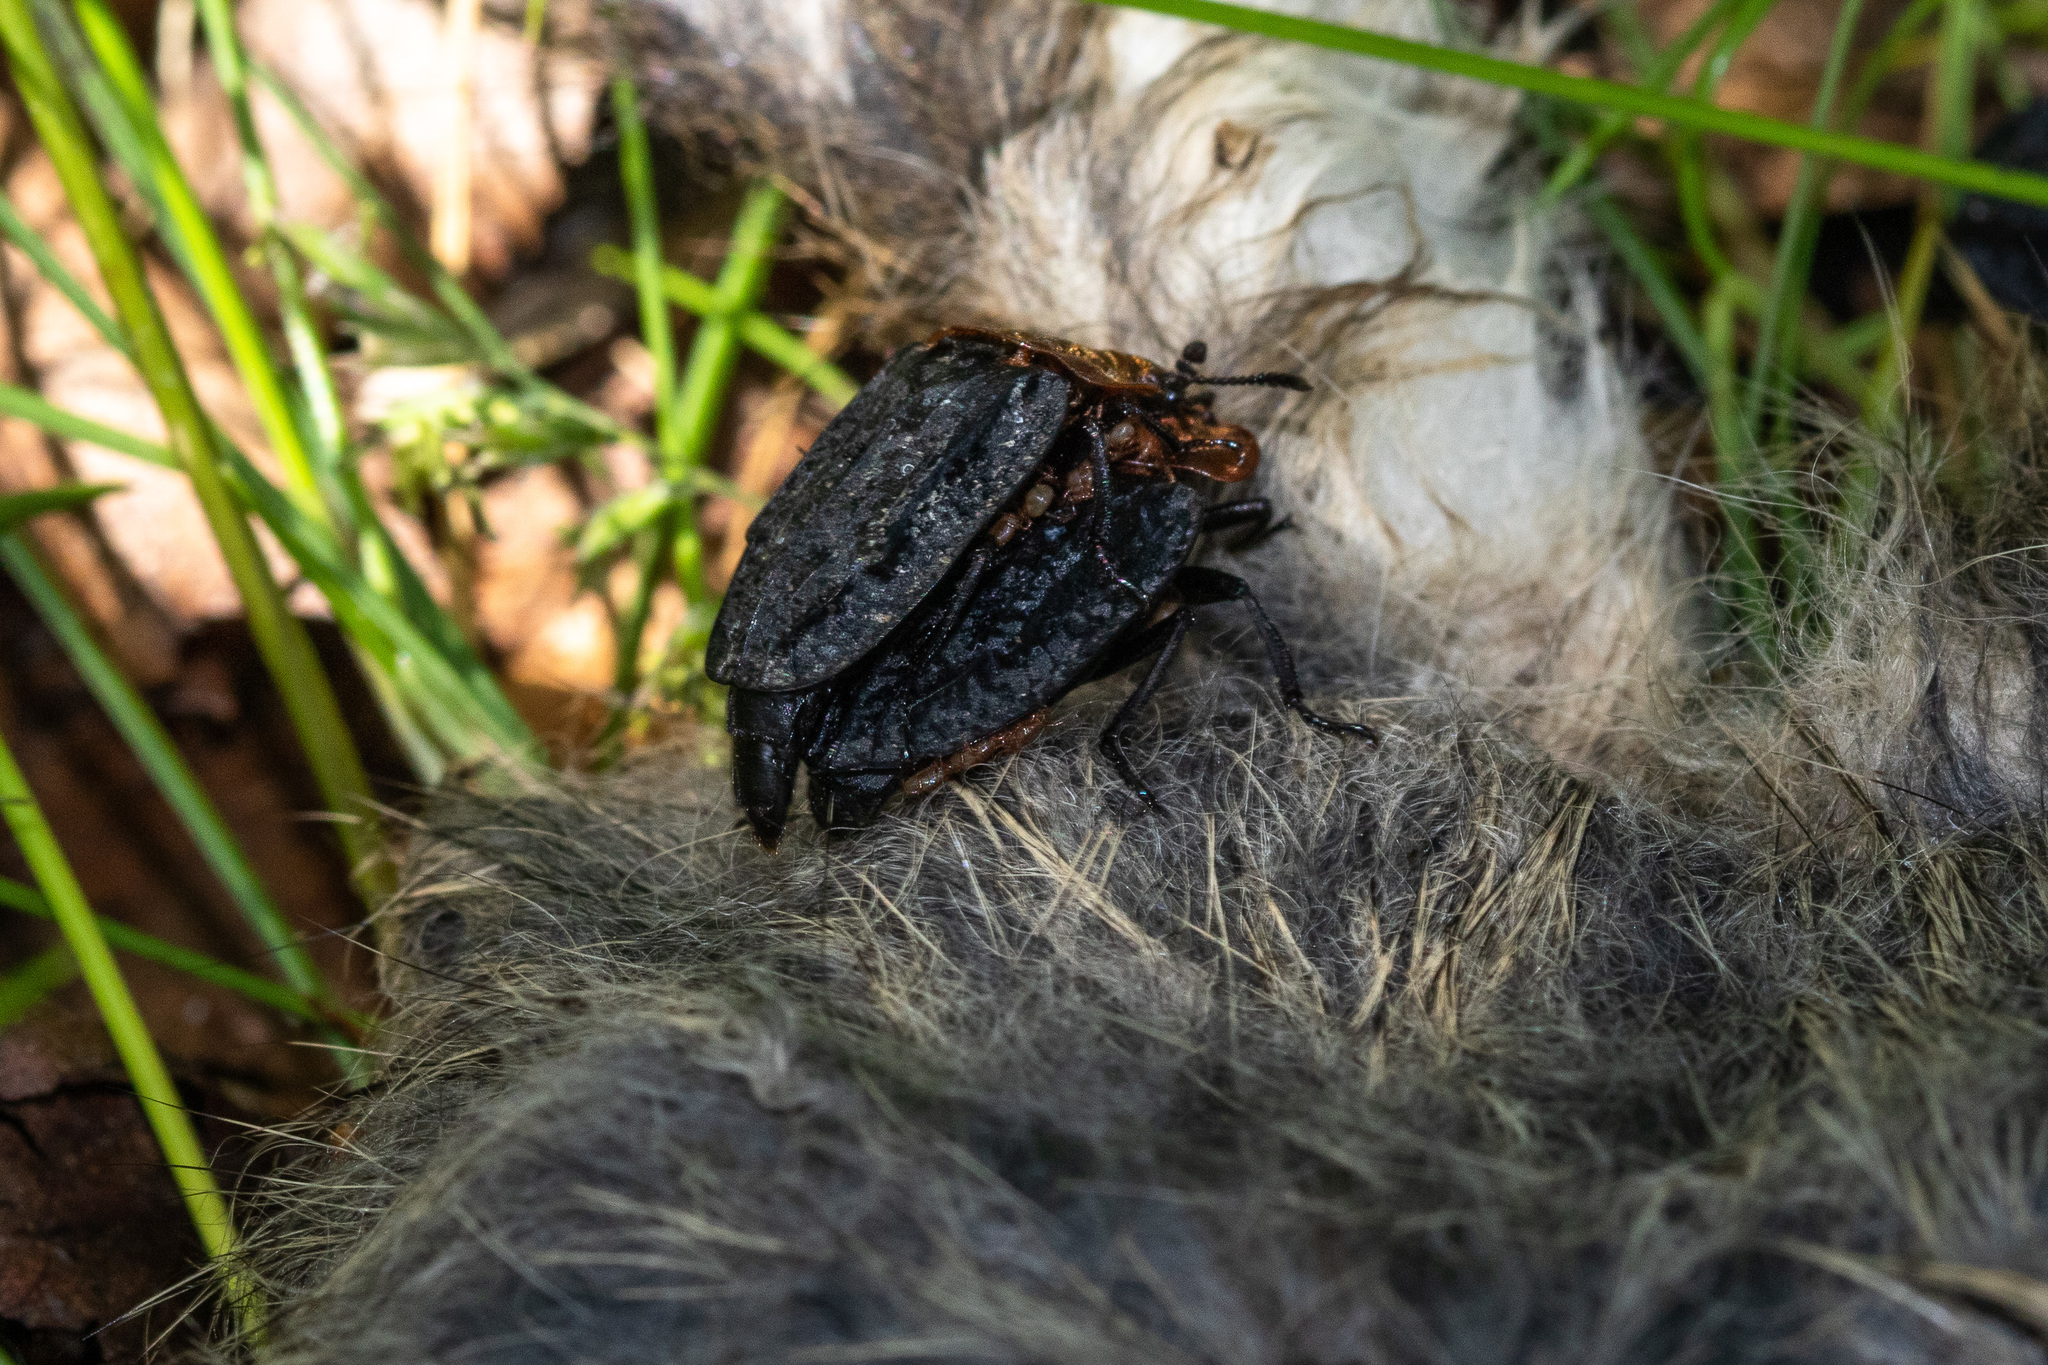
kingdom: Animalia
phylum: Arthropoda
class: Insecta
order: Coleoptera
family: Staphylinidae
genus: Oiceoptoma
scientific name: Oiceoptoma thoracicum
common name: Red-breasted carrion beetle
